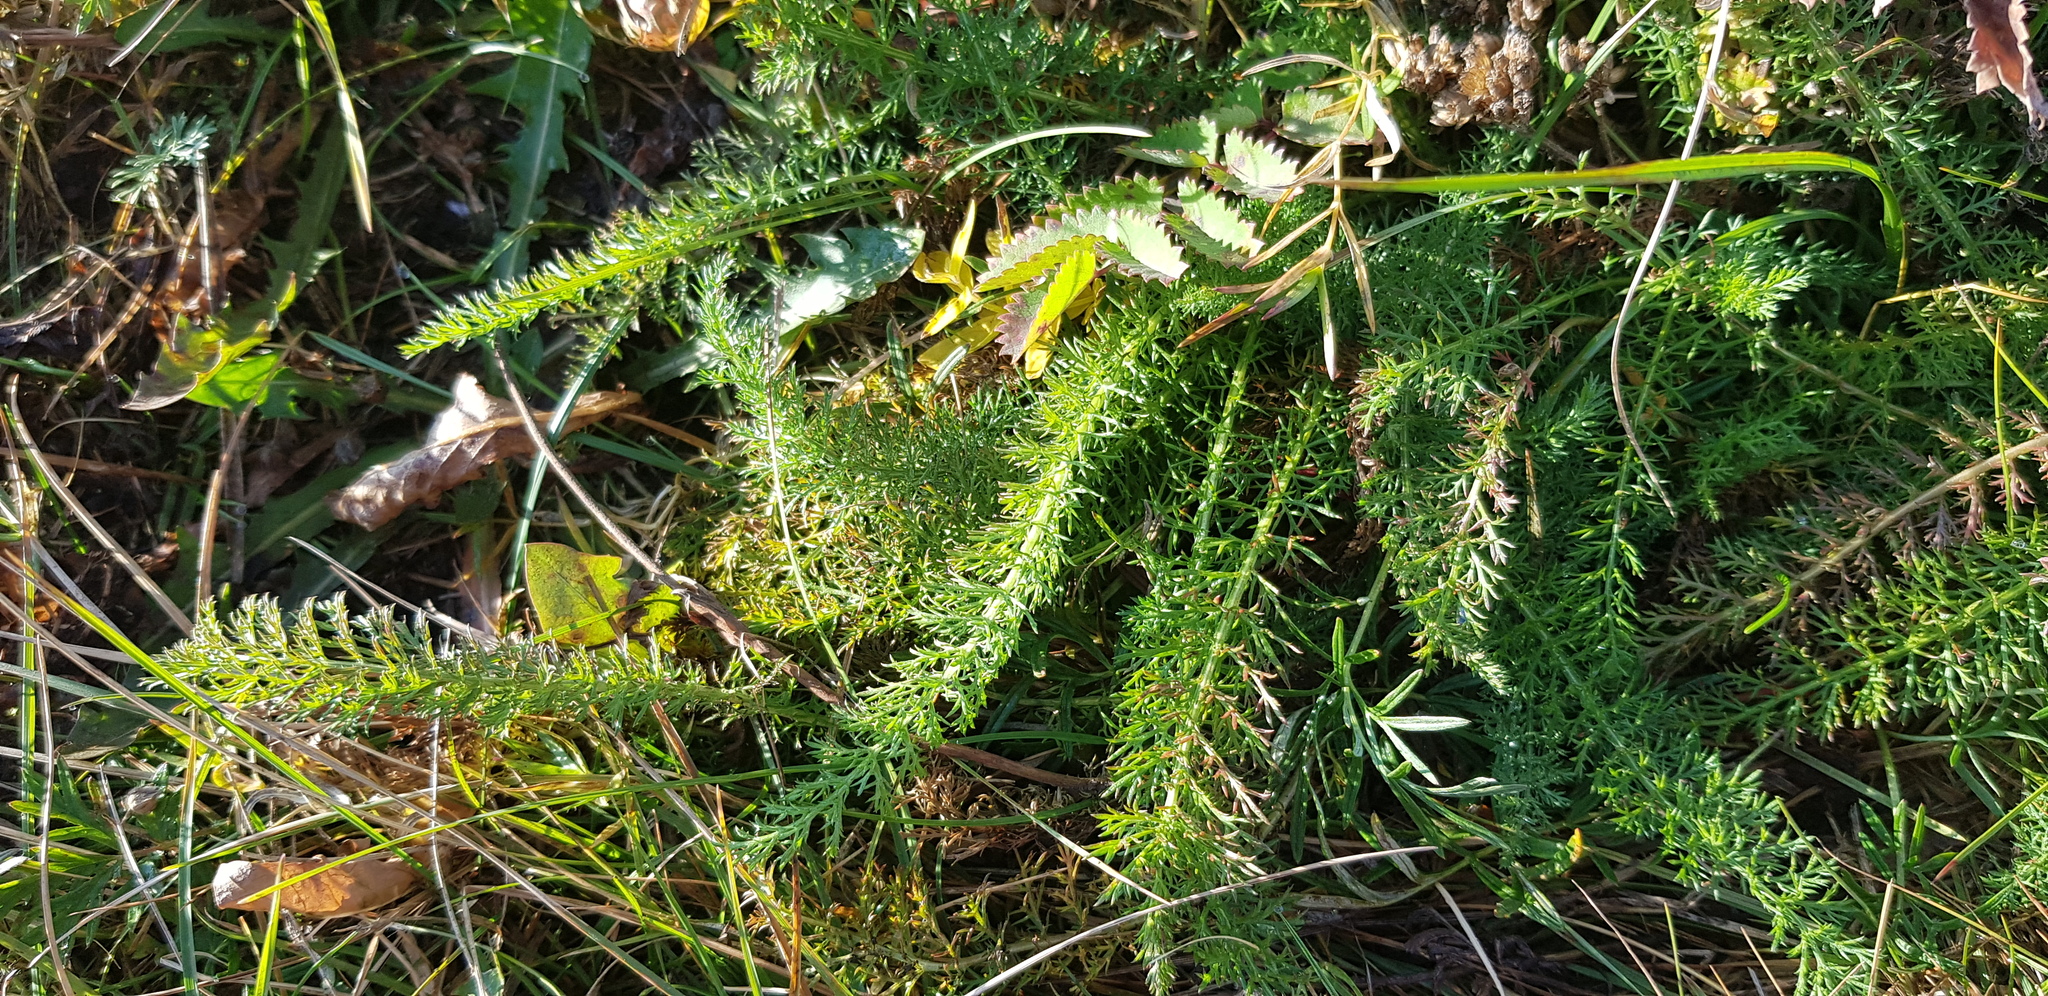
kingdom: Plantae
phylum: Tracheophyta
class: Magnoliopsida
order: Asterales
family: Asteraceae
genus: Achillea
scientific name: Achillea asiatica
